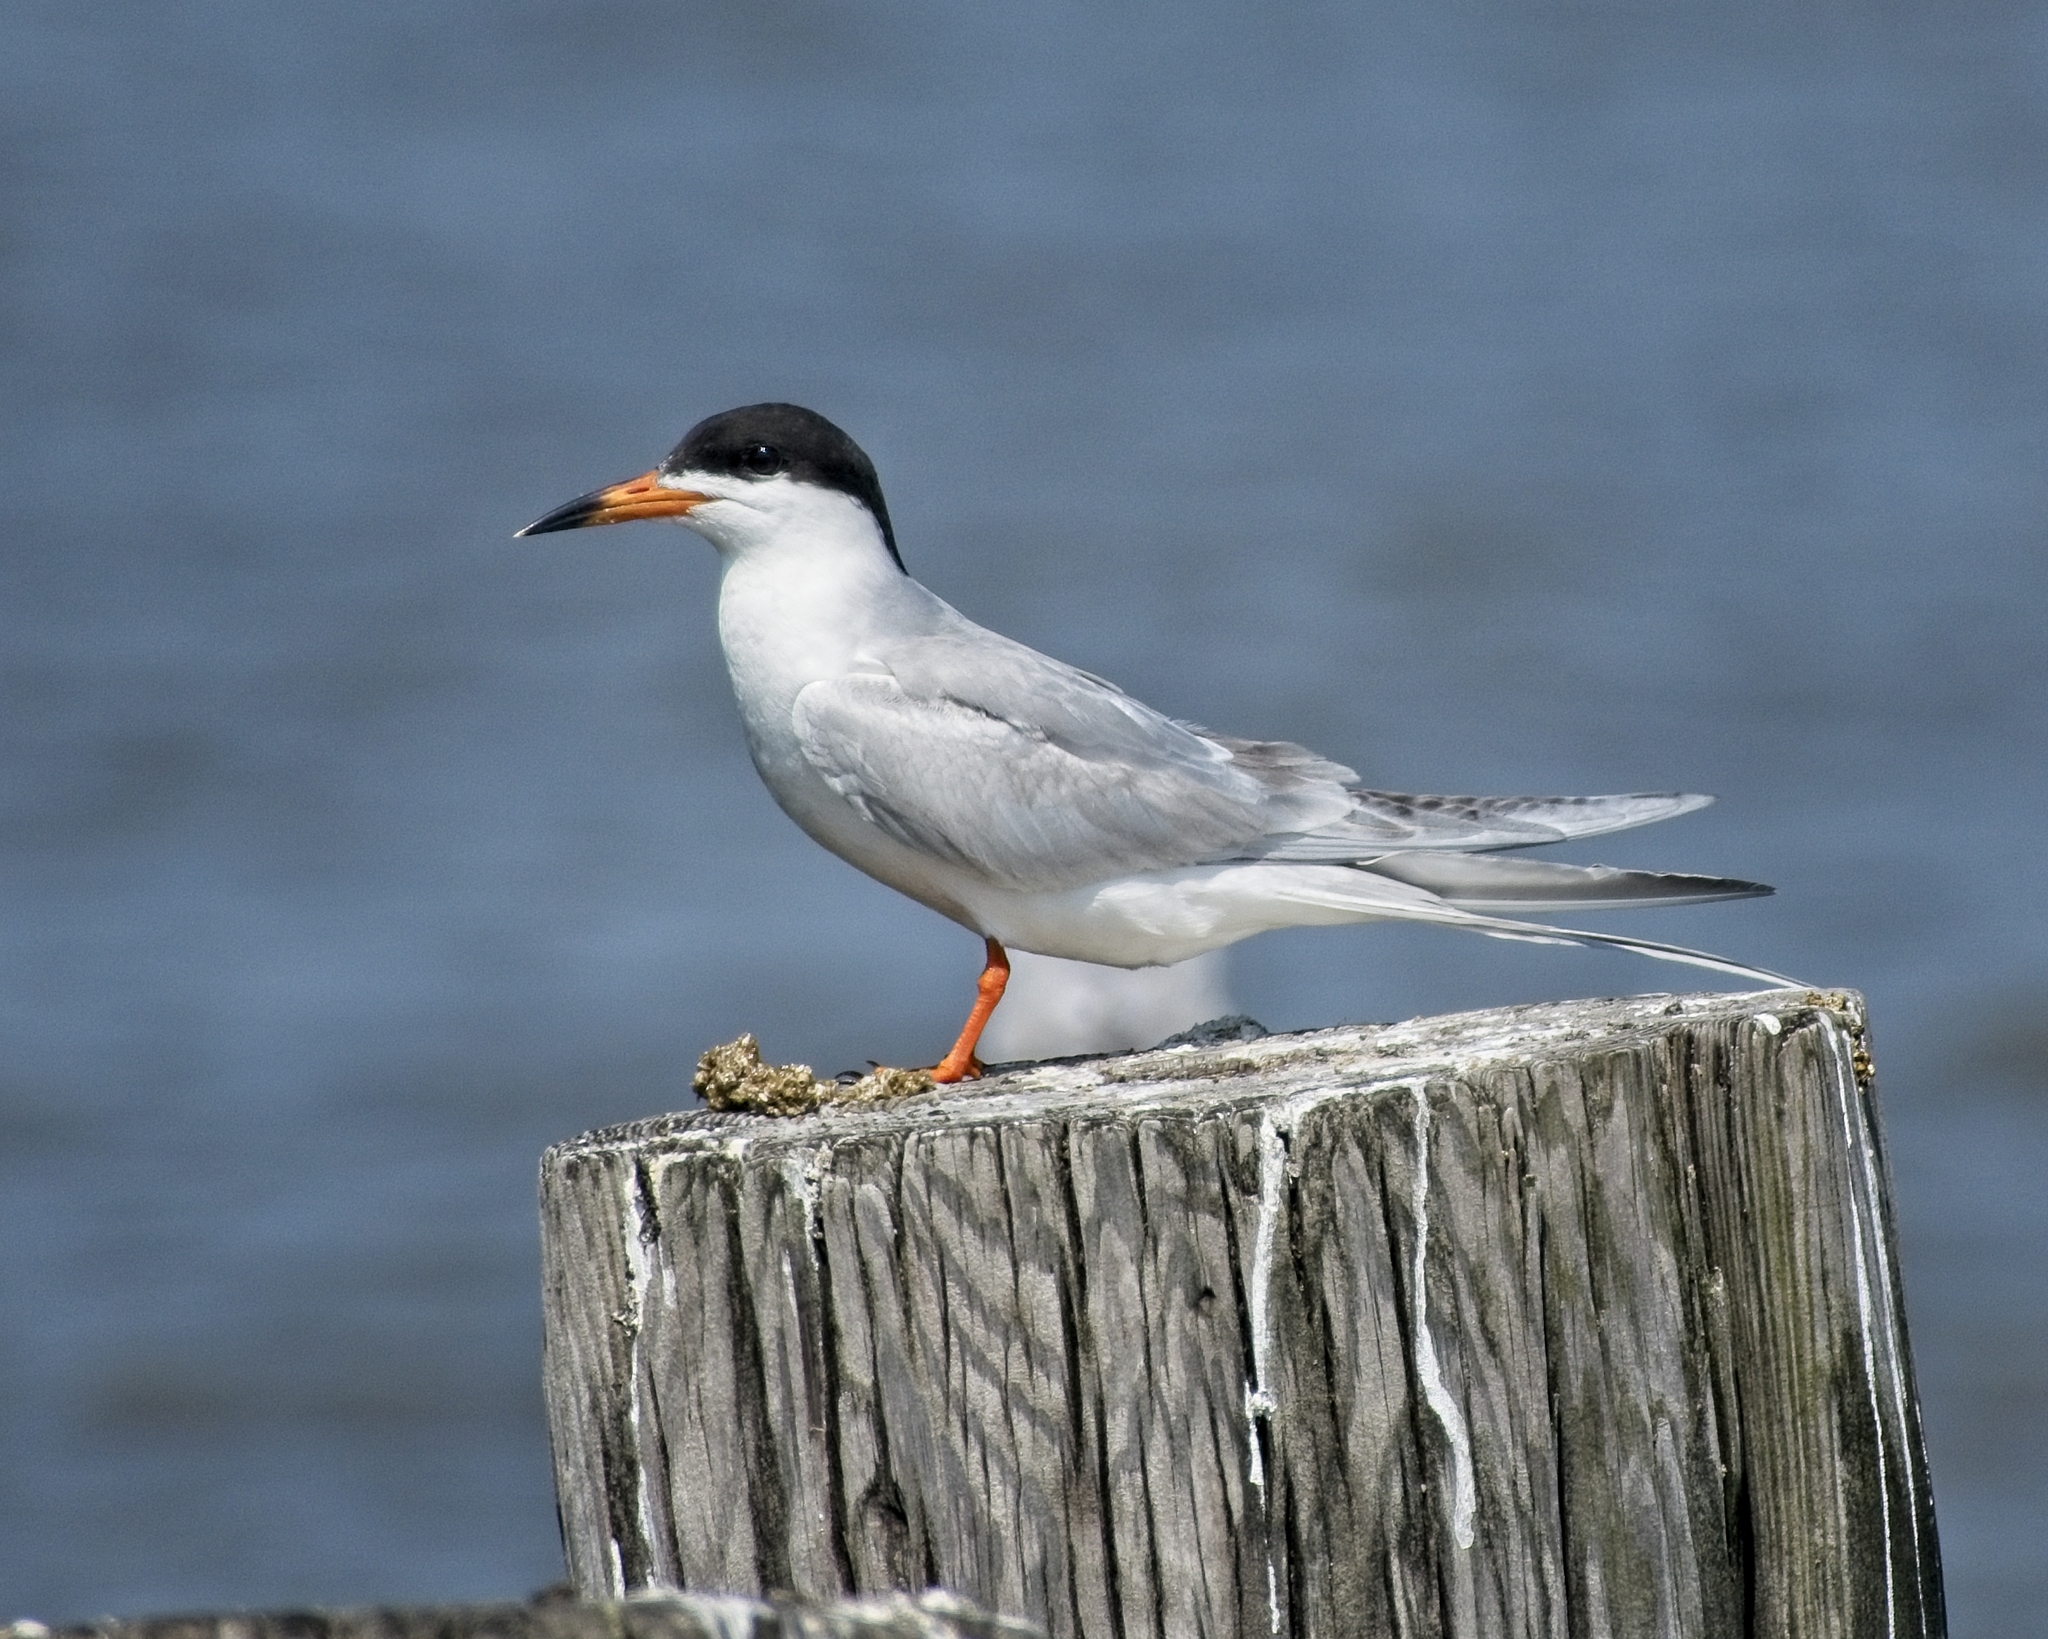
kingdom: Animalia
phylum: Chordata
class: Aves
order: Charadriiformes
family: Laridae
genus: Sterna
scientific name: Sterna forsteri
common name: Forster's tern
